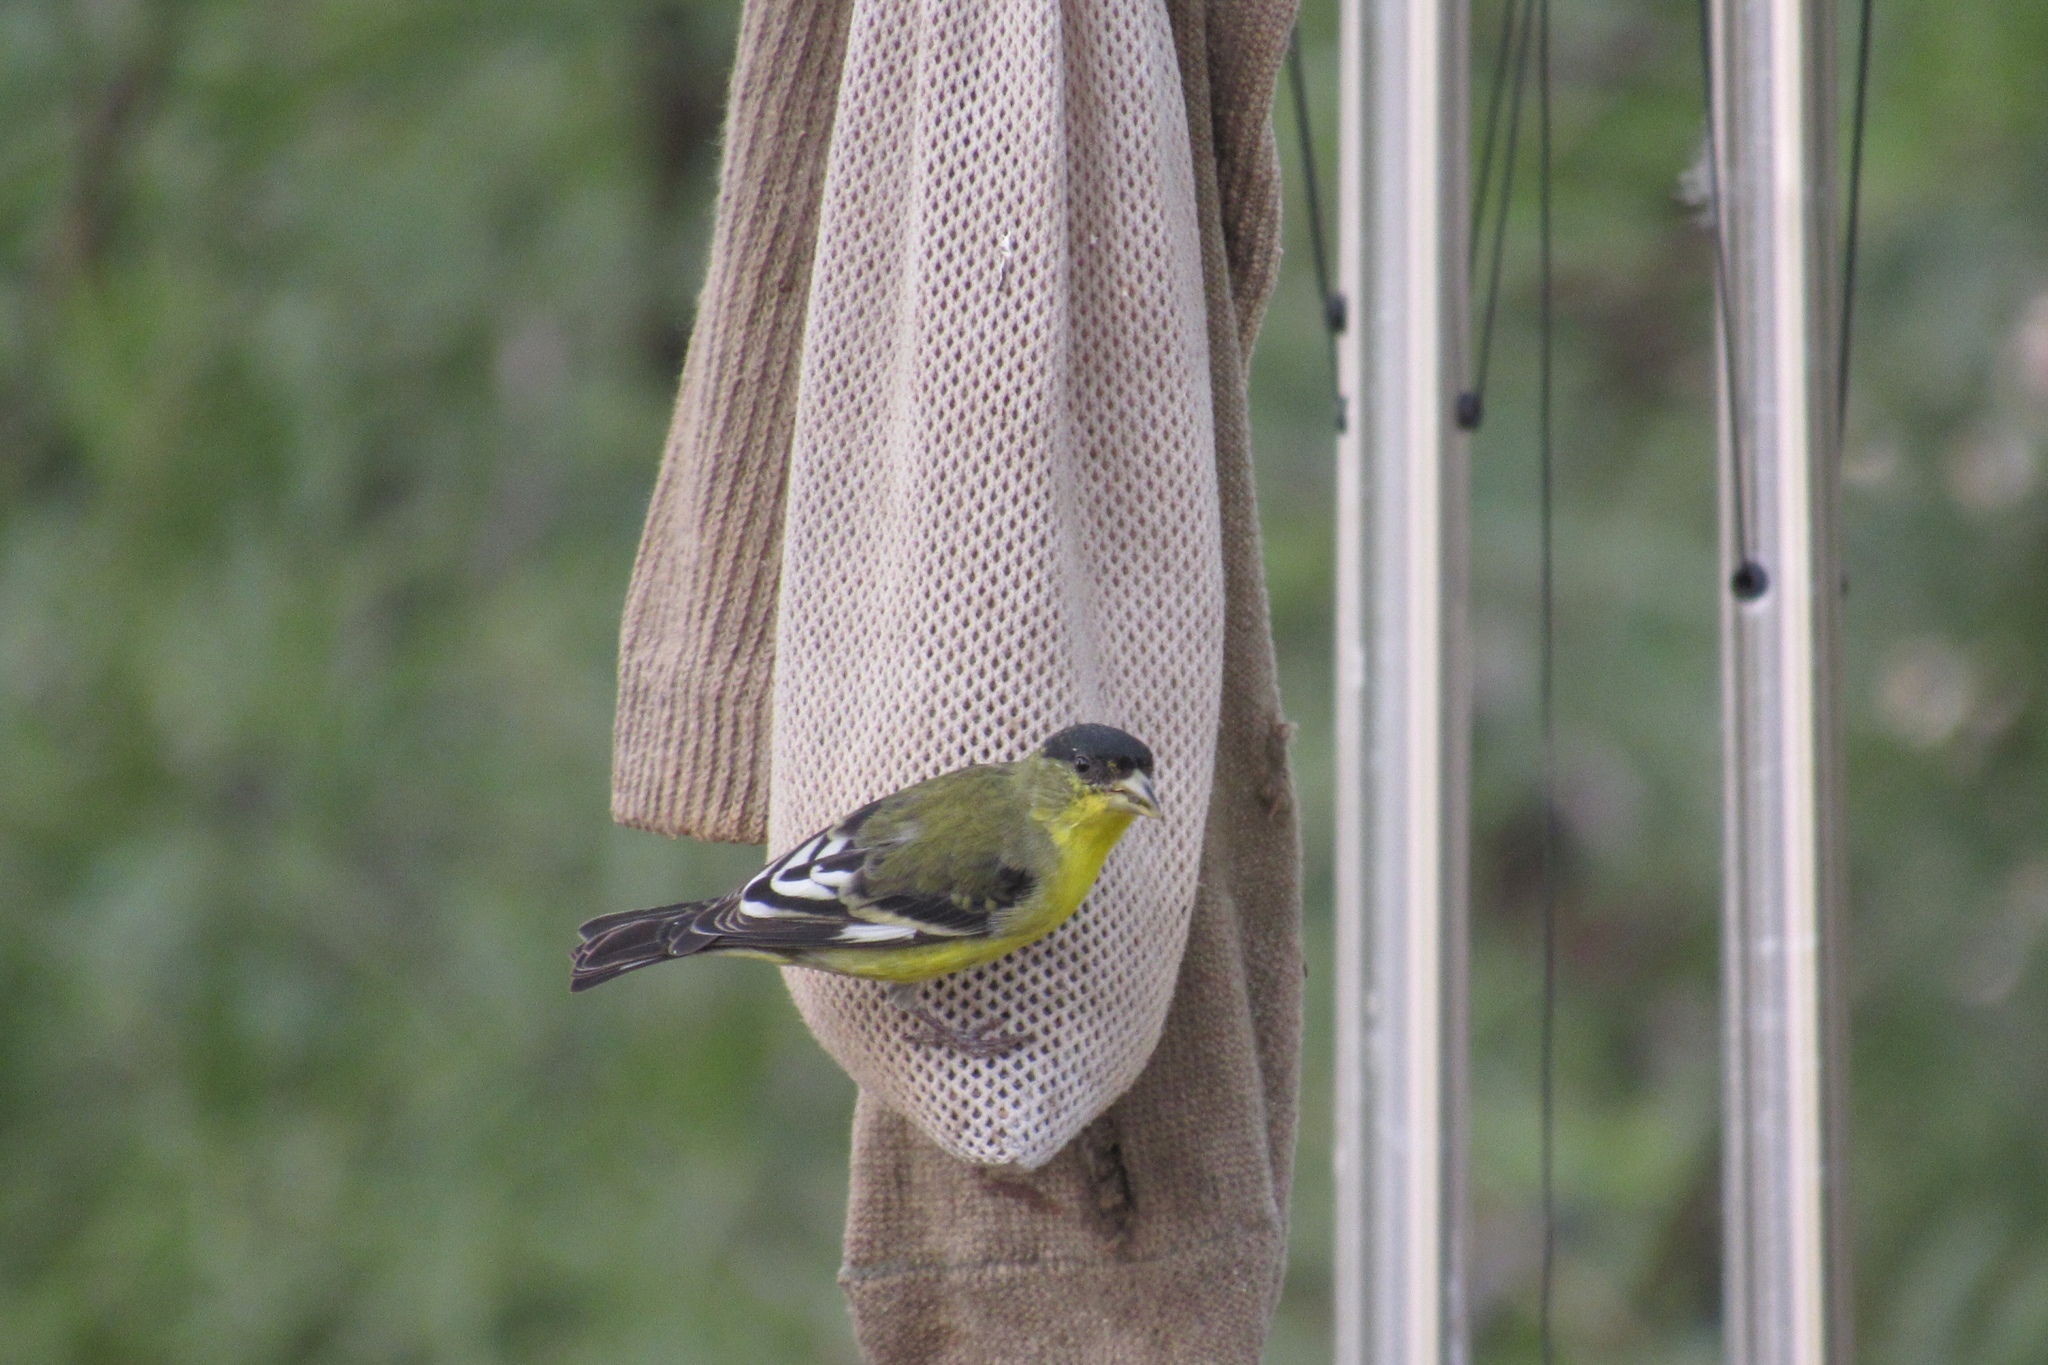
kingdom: Animalia
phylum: Chordata
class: Aves
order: Passeriformes
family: Fringillidae
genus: Spinus
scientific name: Spinus psaltria
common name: Lesser goldfinch
